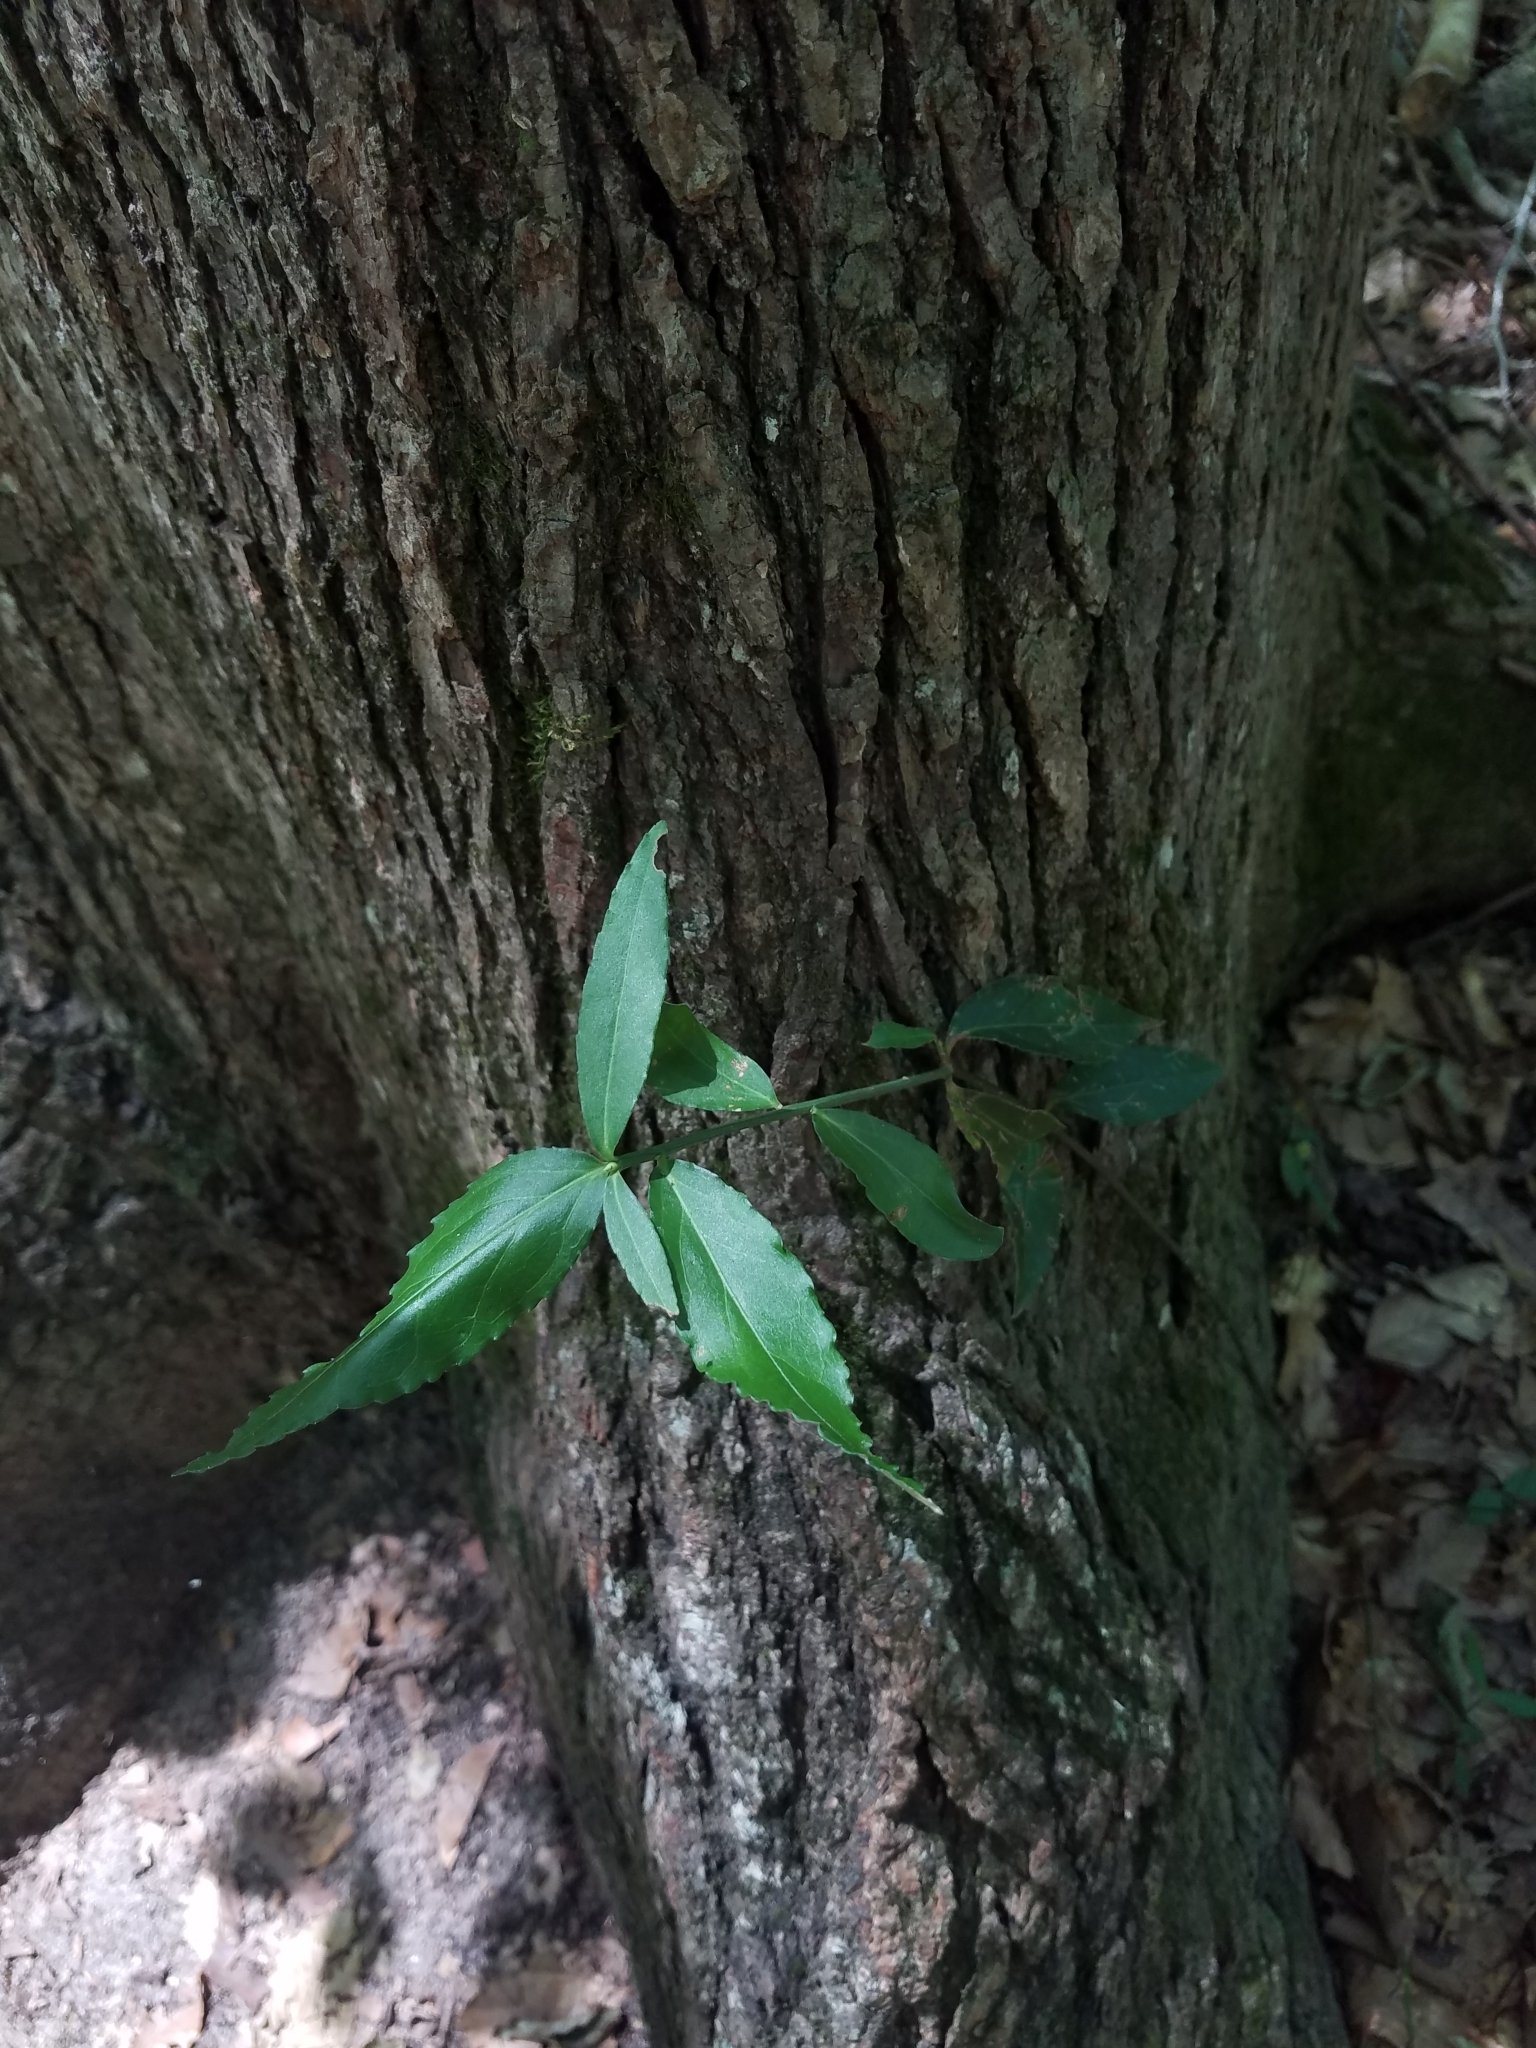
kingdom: Plantae
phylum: Tracheophyta
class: Magnoliopsida
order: Celastrales
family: Celastraceae
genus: Euonymus
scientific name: Euonymus americanus
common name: Bursting-heart
